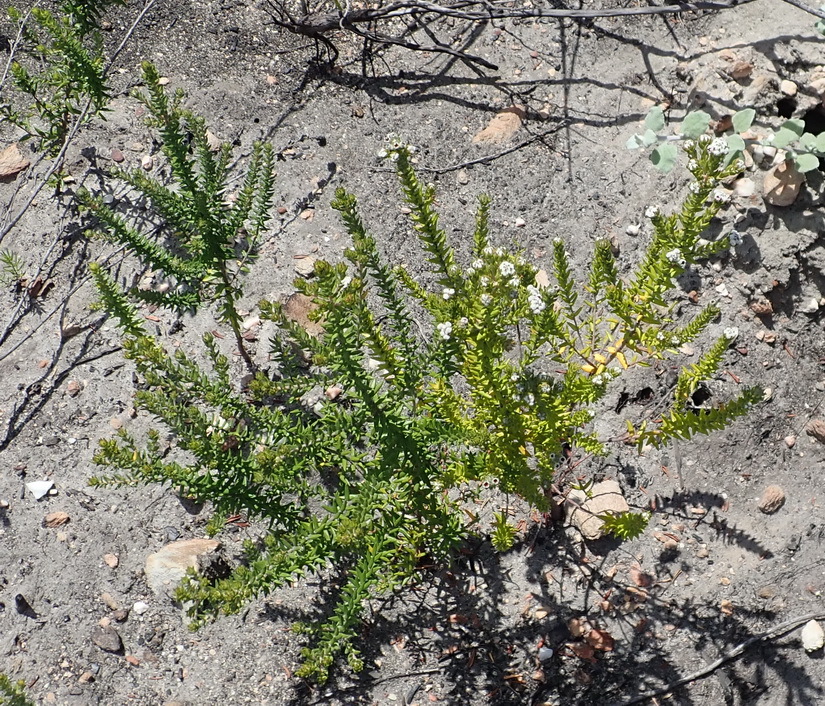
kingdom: Plantae
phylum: Tracheophyta
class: Magnoliopsida
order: Rosales
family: Rhamnaceae
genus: Phylica
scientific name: Phylica purpurea
